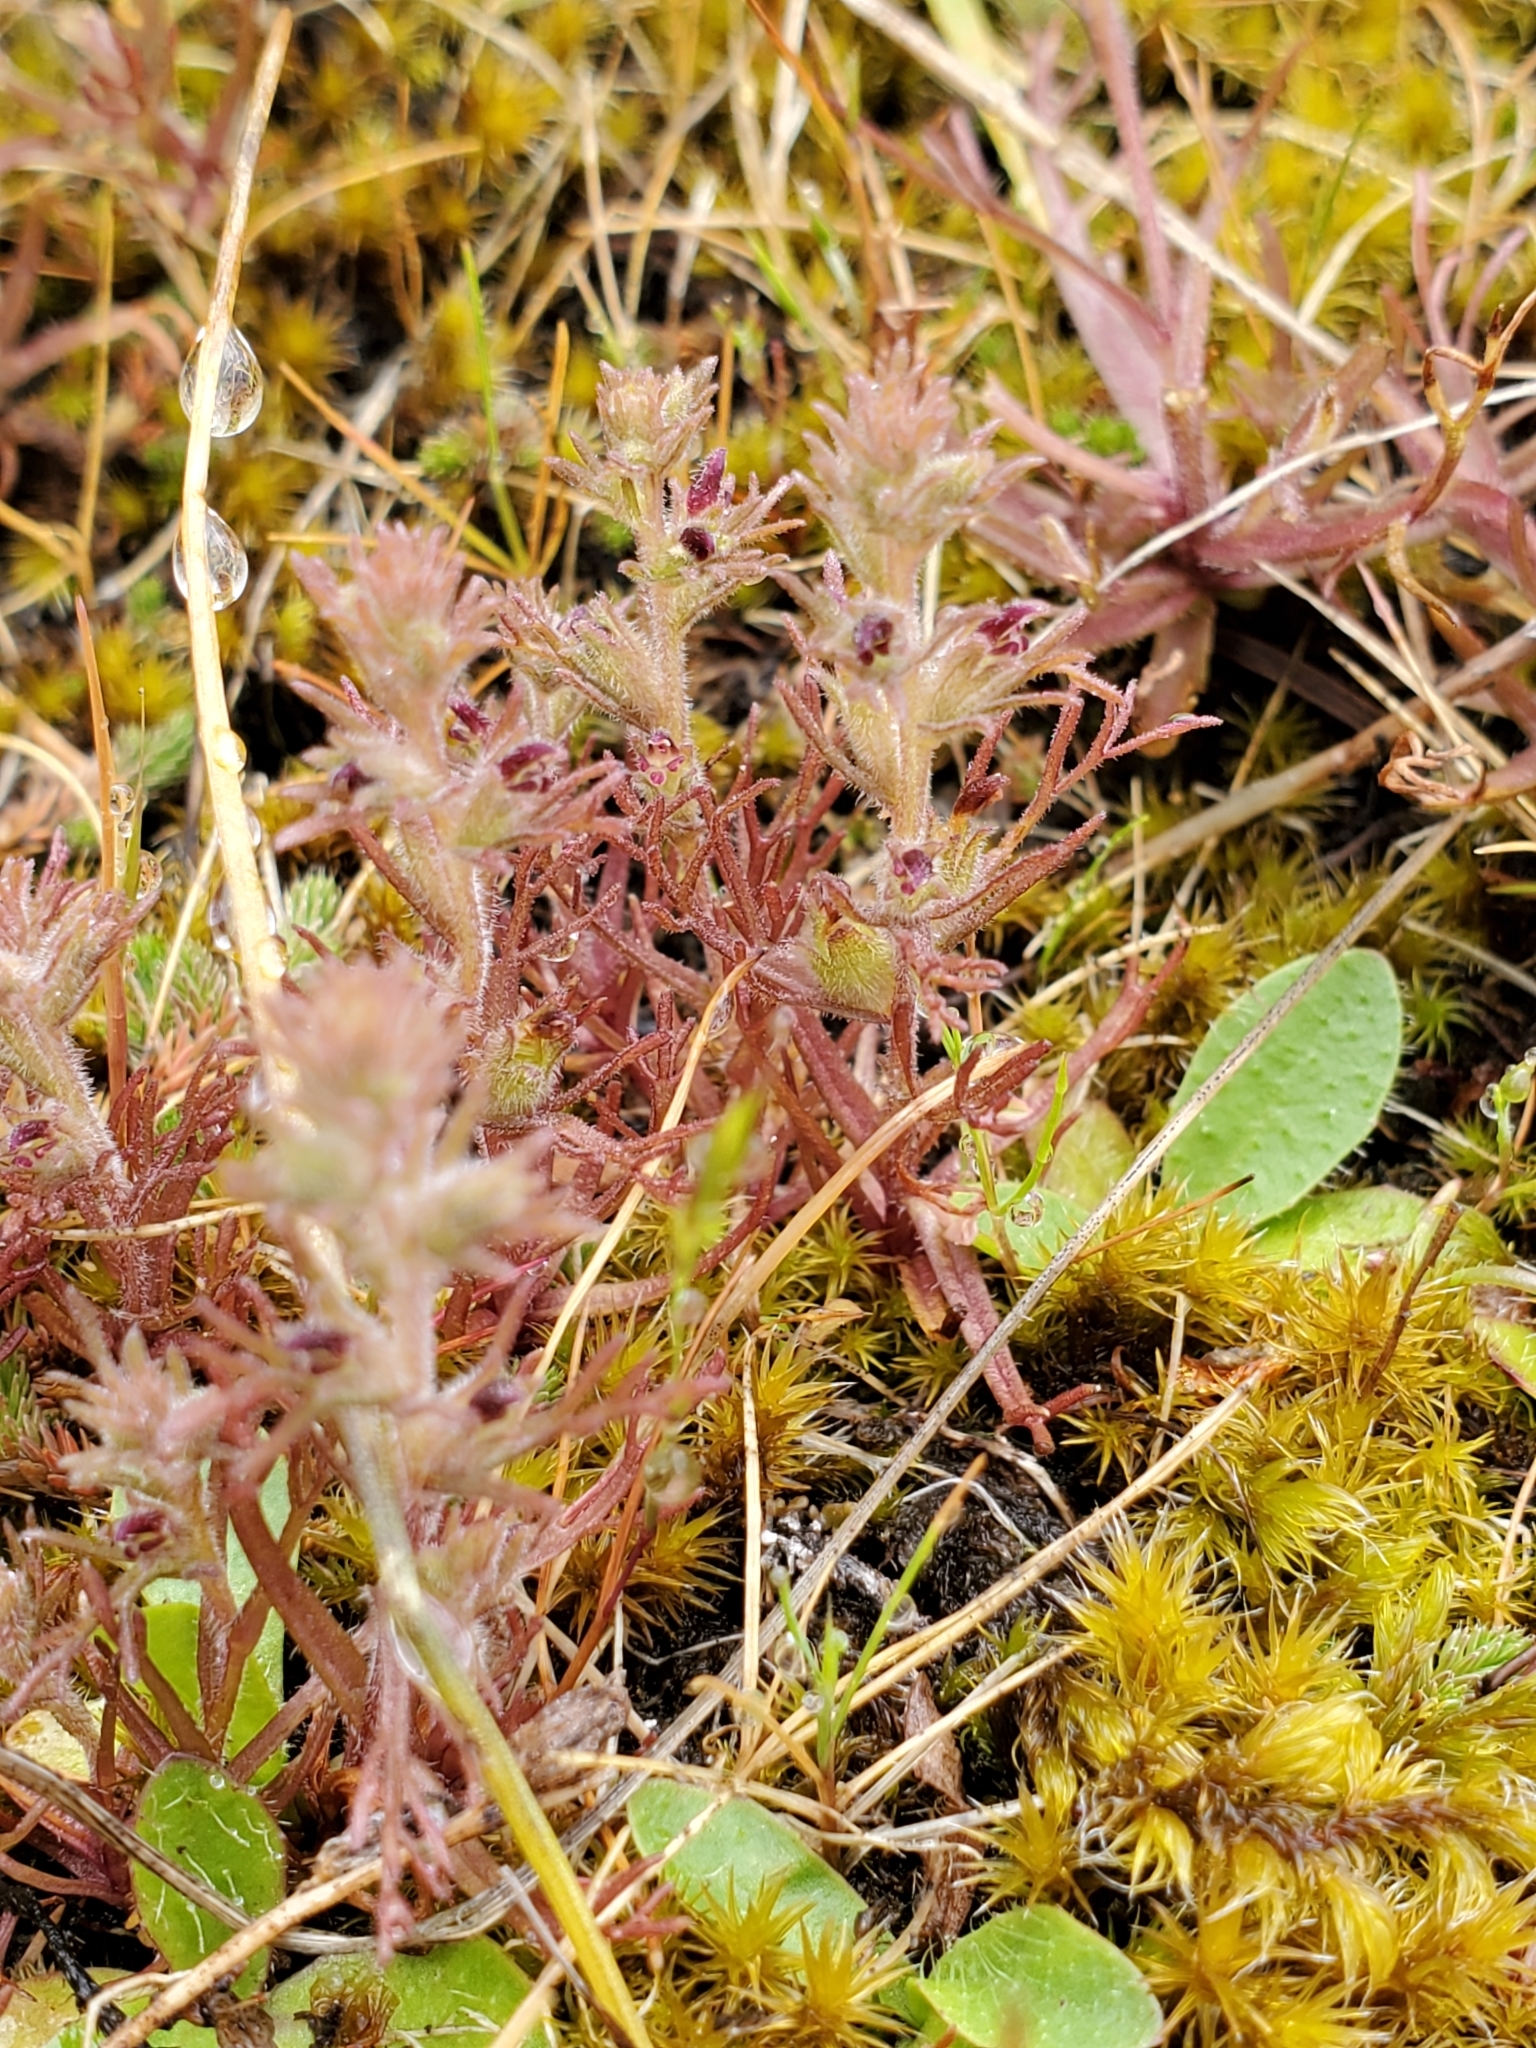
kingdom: Plantae
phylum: Tracheophyta
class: Magnoliopsida
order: Lamiales
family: Orobanchaceae
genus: Triphysaria
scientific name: Triphysaria pusilla
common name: Dwarf false owl-clover
